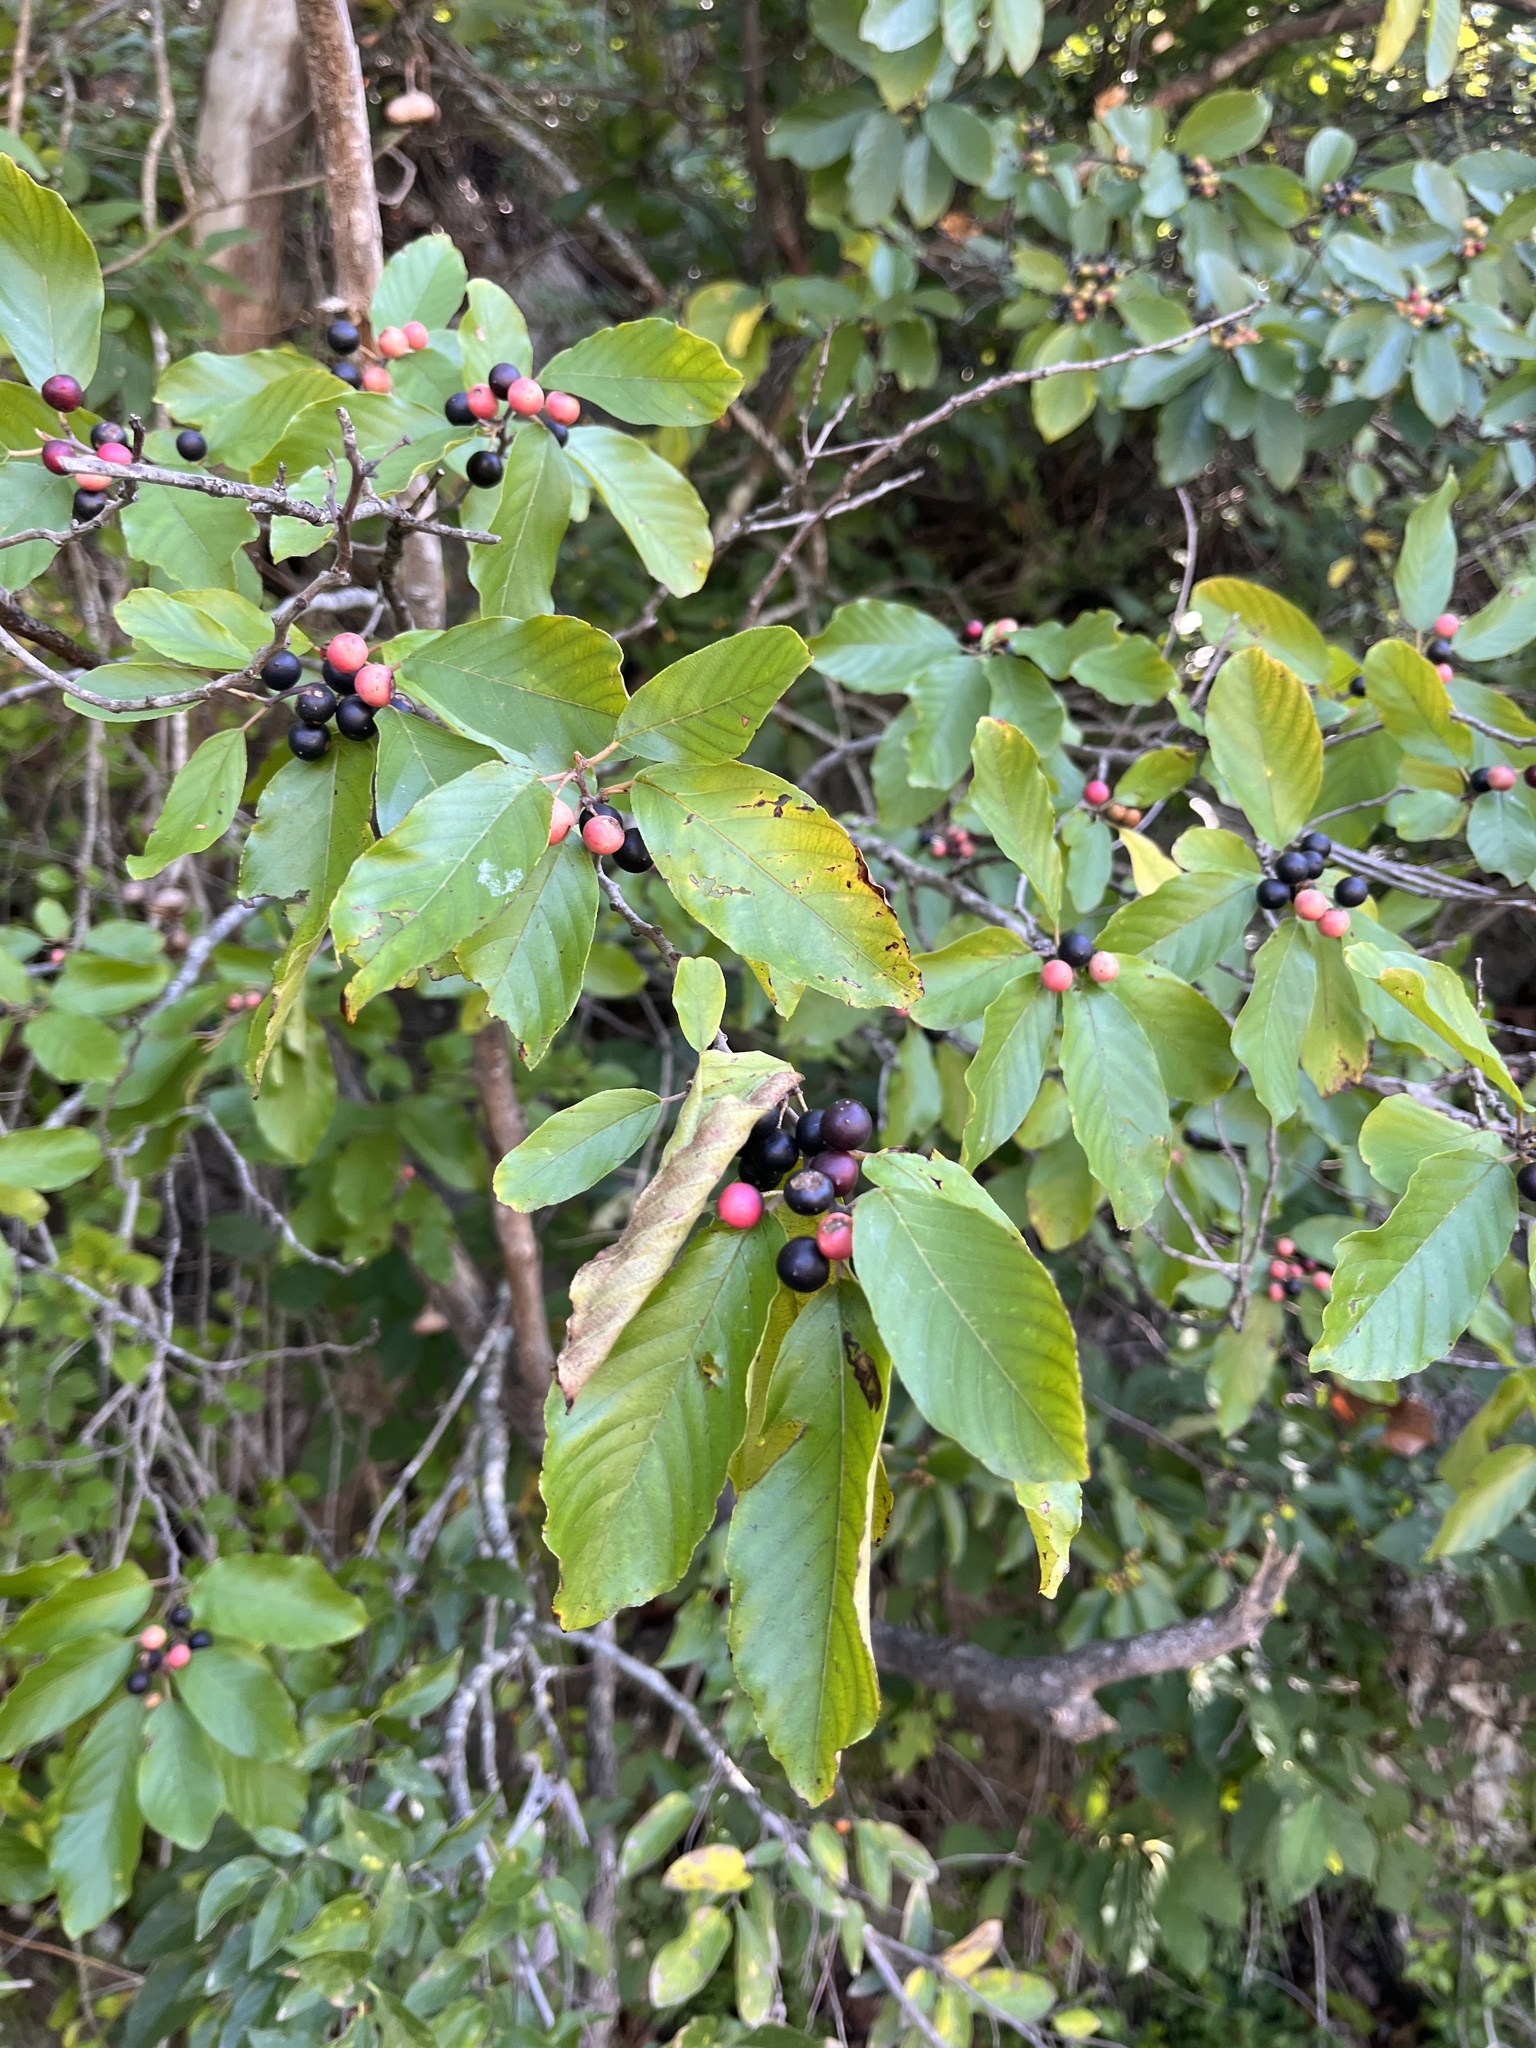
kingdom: Plantae
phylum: Tracheophyta
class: Magnoliopsida
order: Rosales
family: Rhamnaceae
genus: Frangula
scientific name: Frangula caroliniana
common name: Carolina buckthorn
